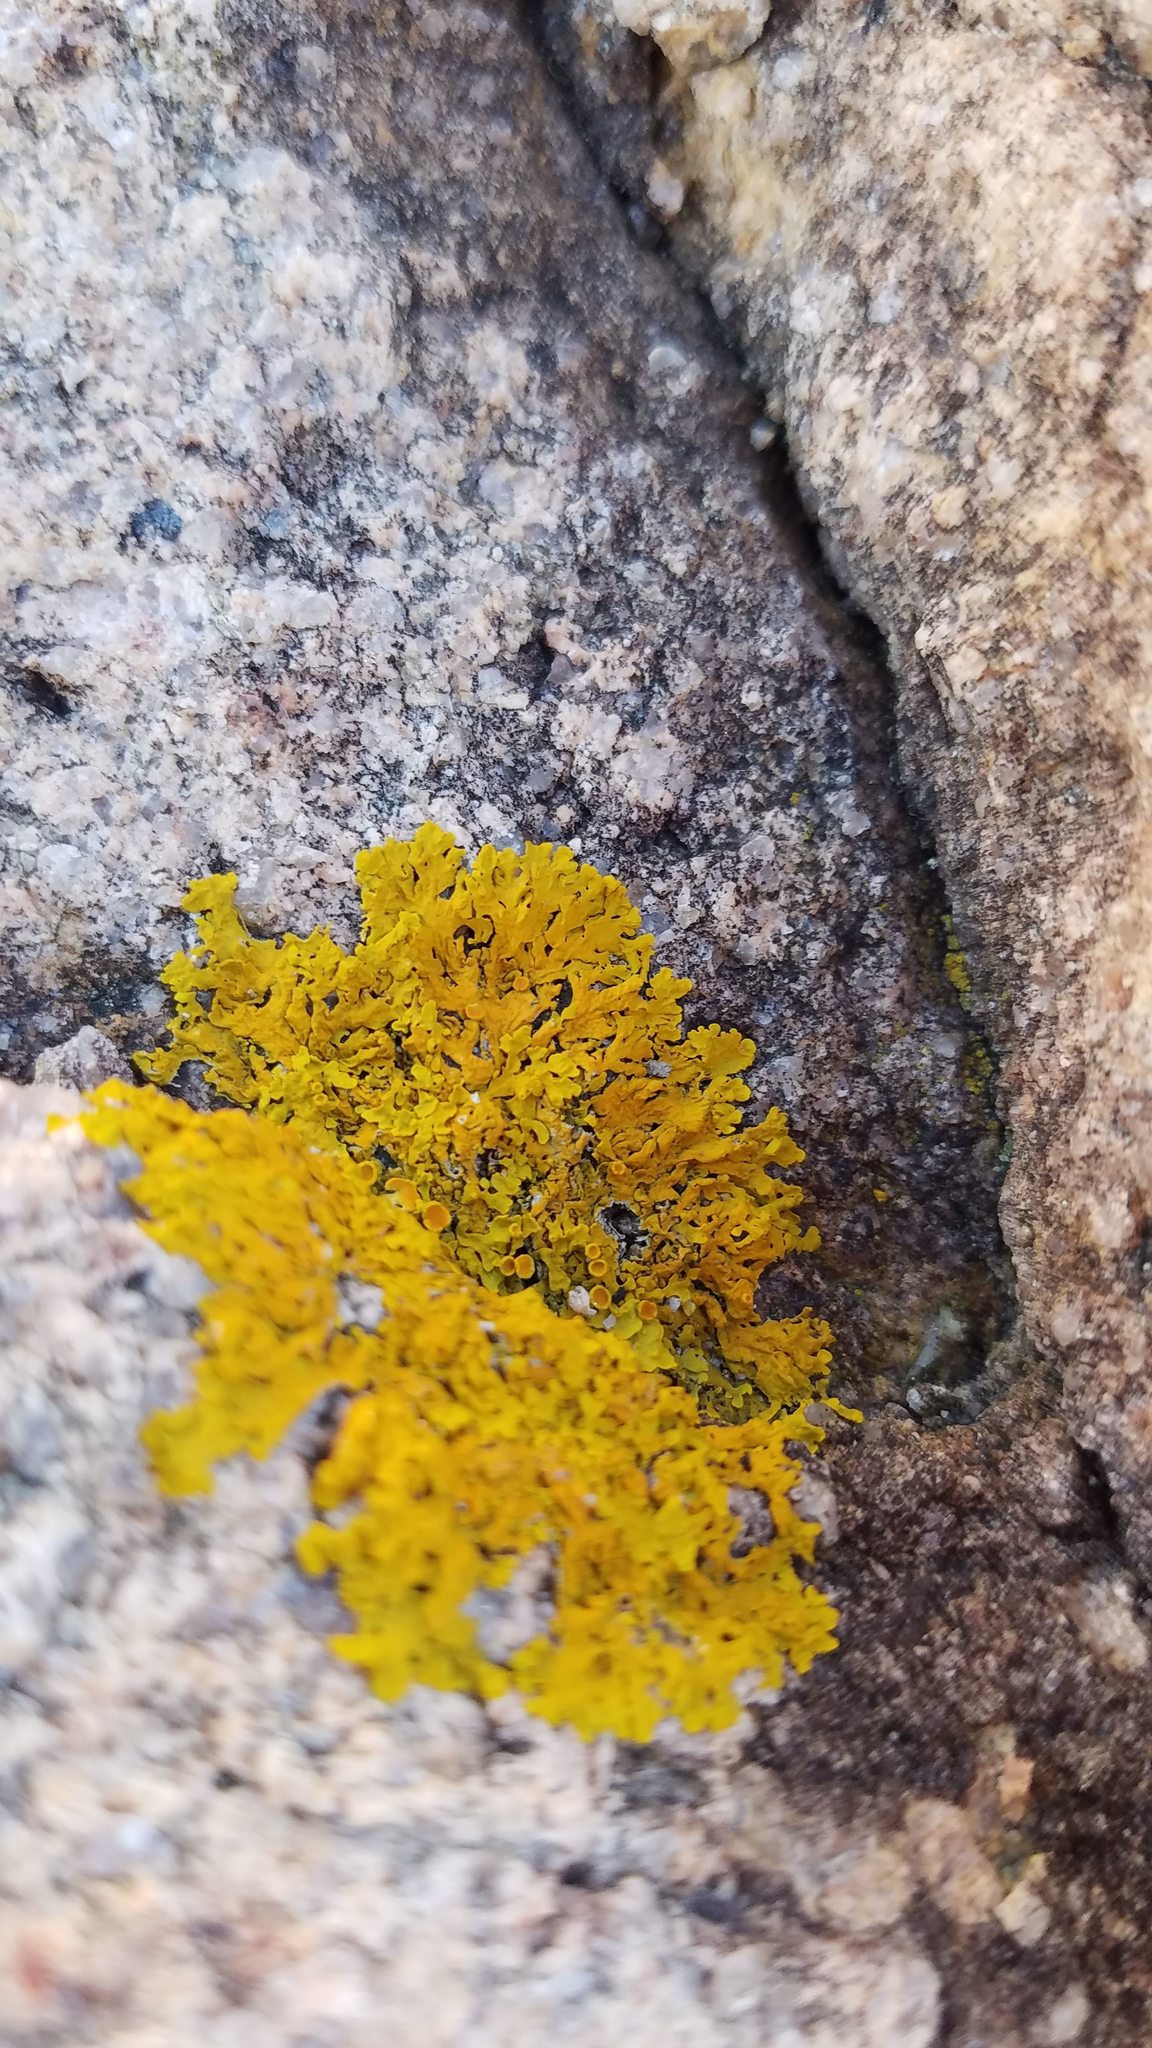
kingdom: Fungi
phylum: Ascomycota
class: Lecanoromycetes
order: Teloschistales
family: Teloschistaceae
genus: Xanthoria
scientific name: Xanthoria parietina
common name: Common orange lichen
